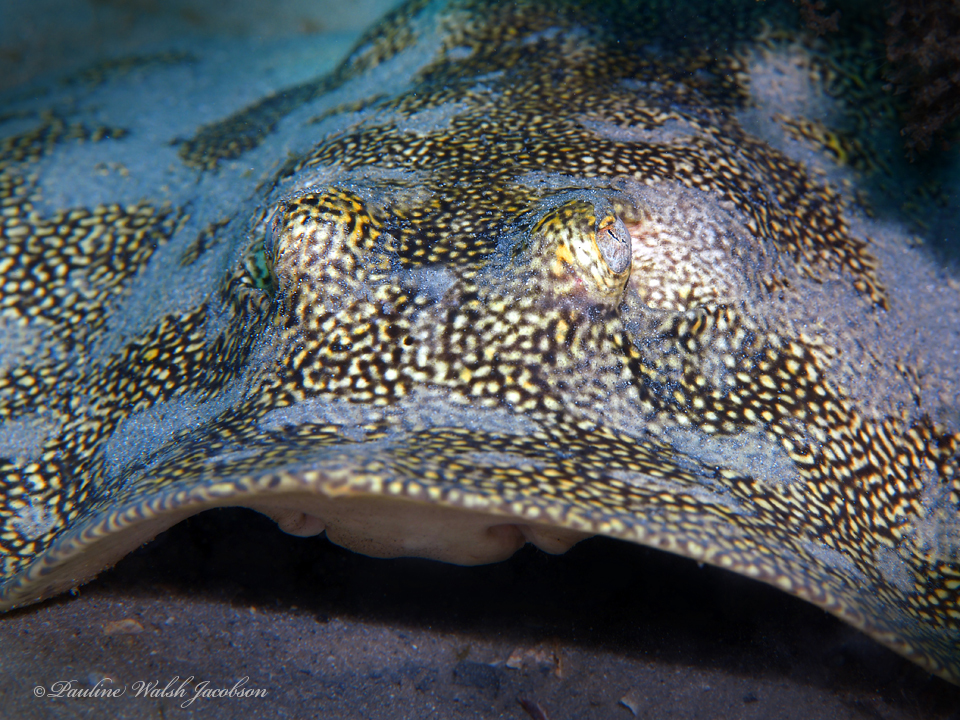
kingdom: Animalia
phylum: Chordata
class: Elasmobranchii
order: Myliobatiformes
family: Urotrygonidae
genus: Urobatis
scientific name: Urobatis jamaicensis
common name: Yellow stingray
